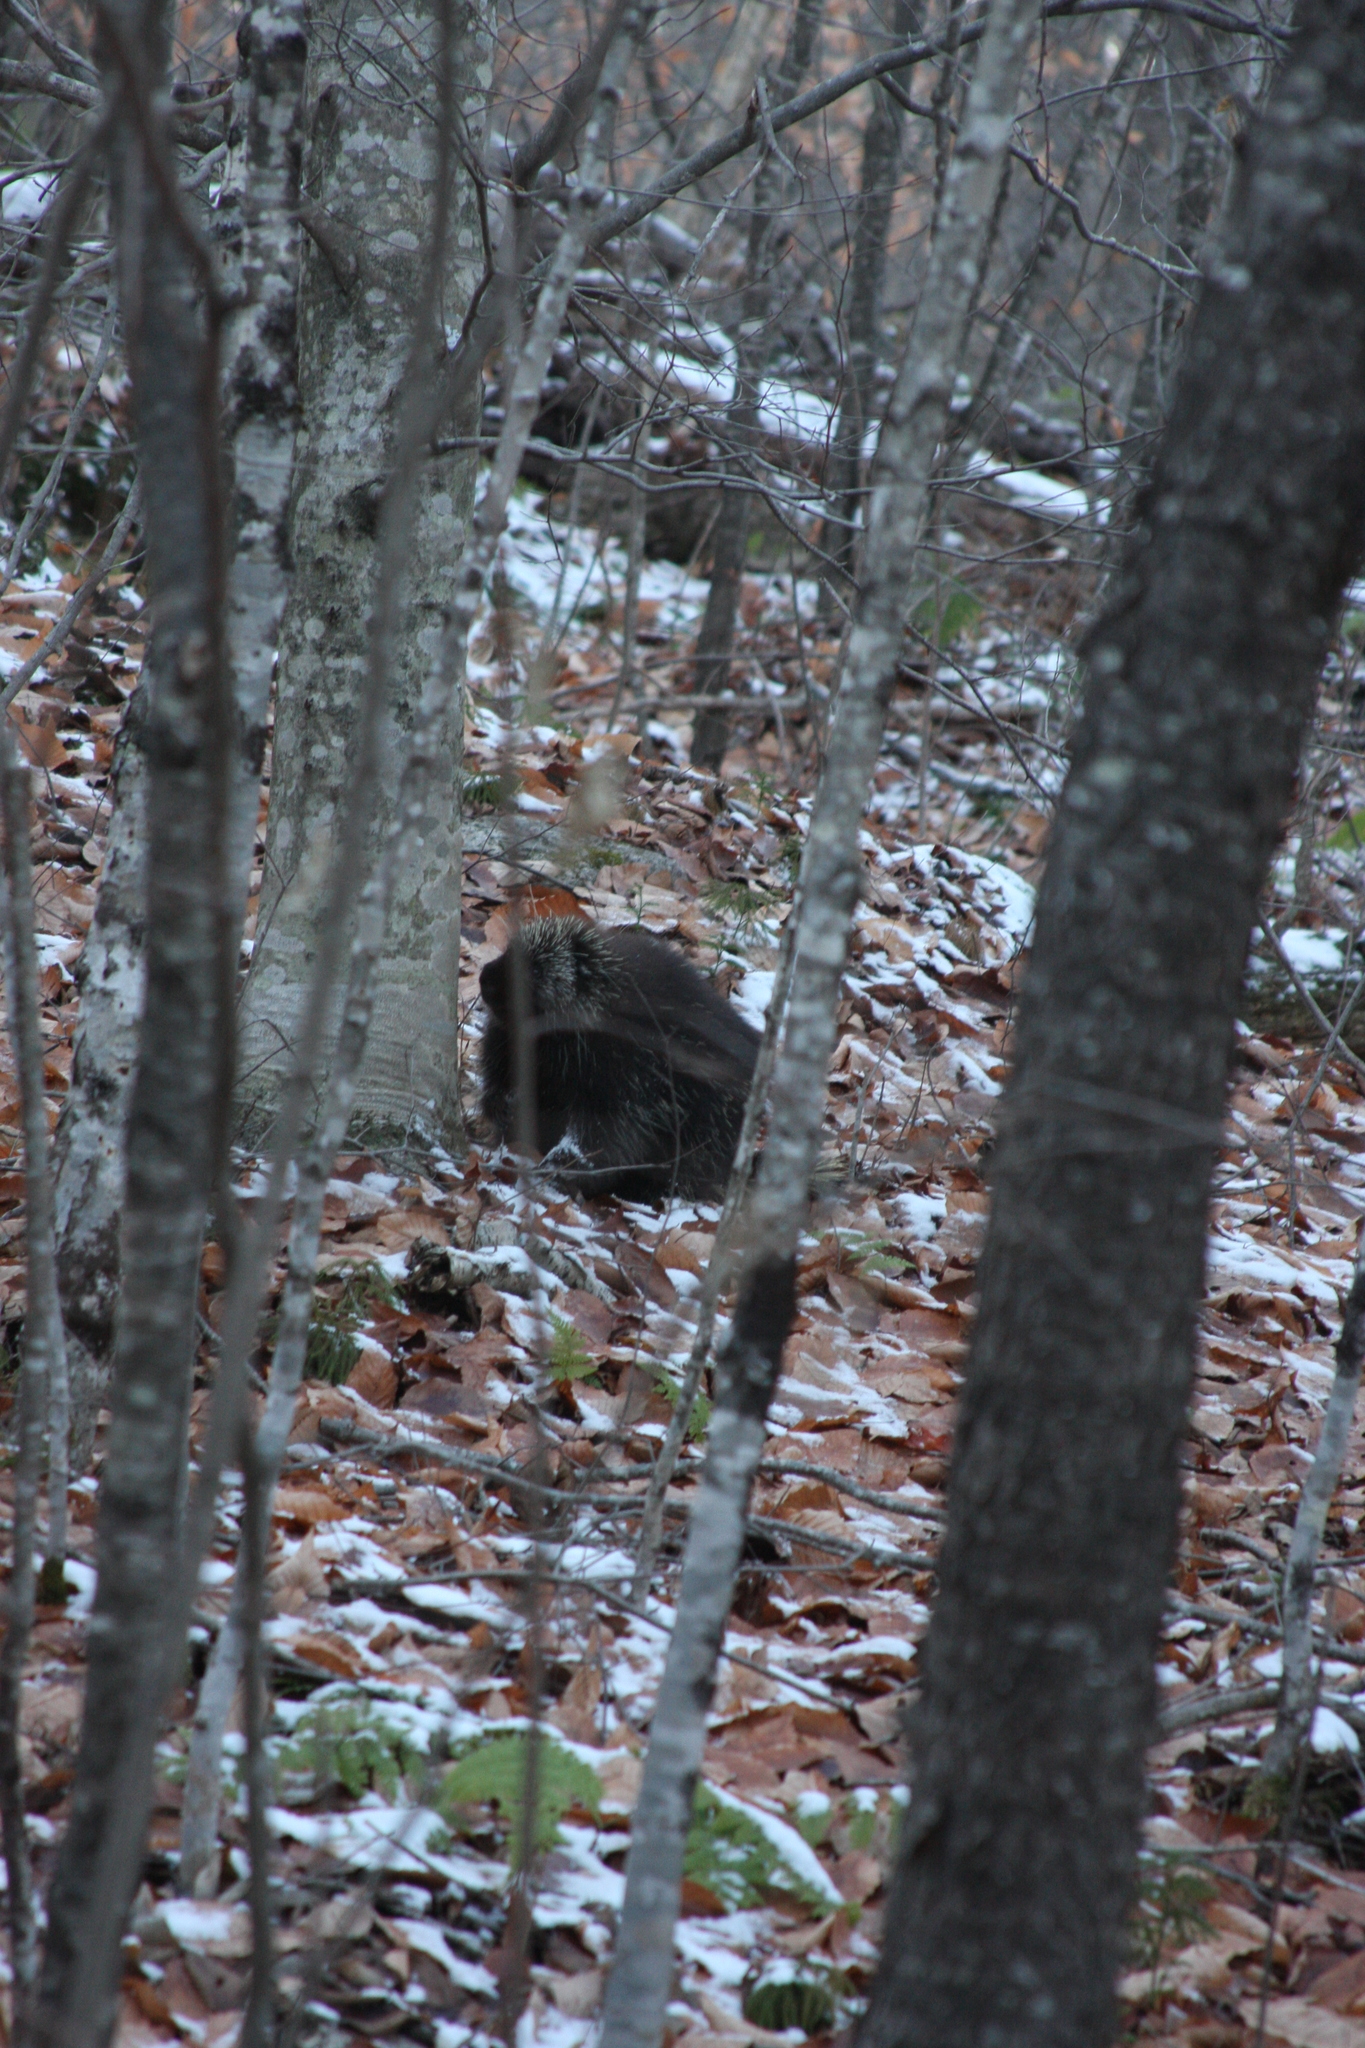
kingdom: Animalia
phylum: Chordata
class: Mammalia
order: Rodentia
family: Erethizontidae
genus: Erethizon
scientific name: Erethizon dorsatus
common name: North american porcupine
